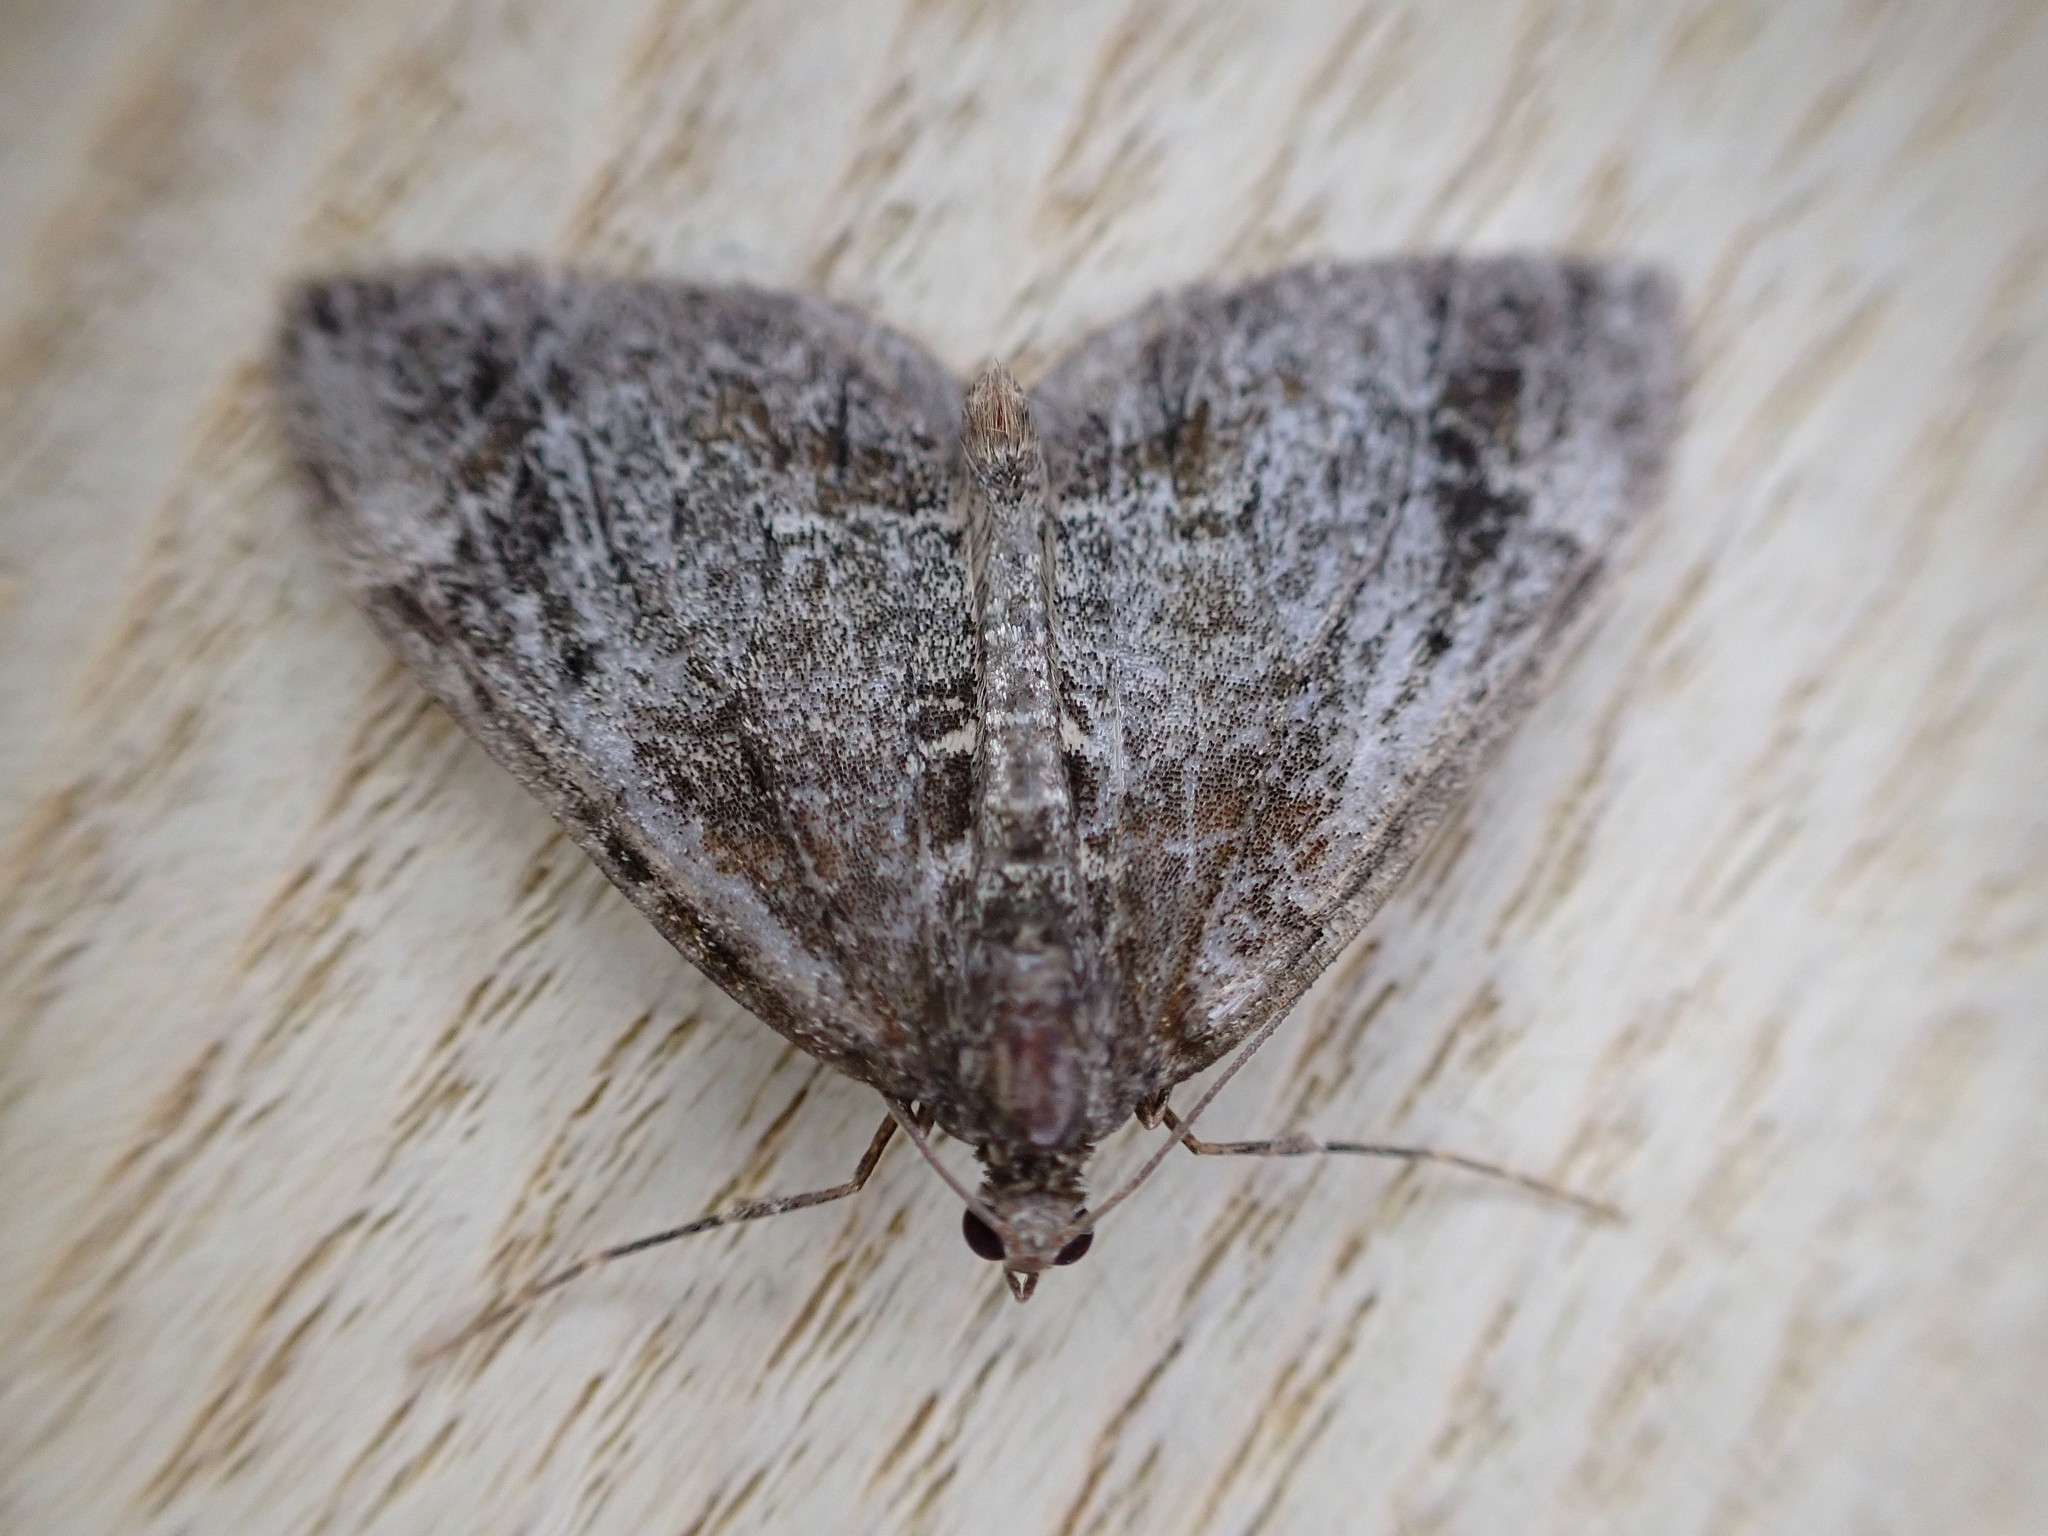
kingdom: Animalia
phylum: Arthropoda
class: Insecta
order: Lepidoptera
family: Geometridae
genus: Dysstroma
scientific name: Dysstroma truncata
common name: Common marbled carpet
